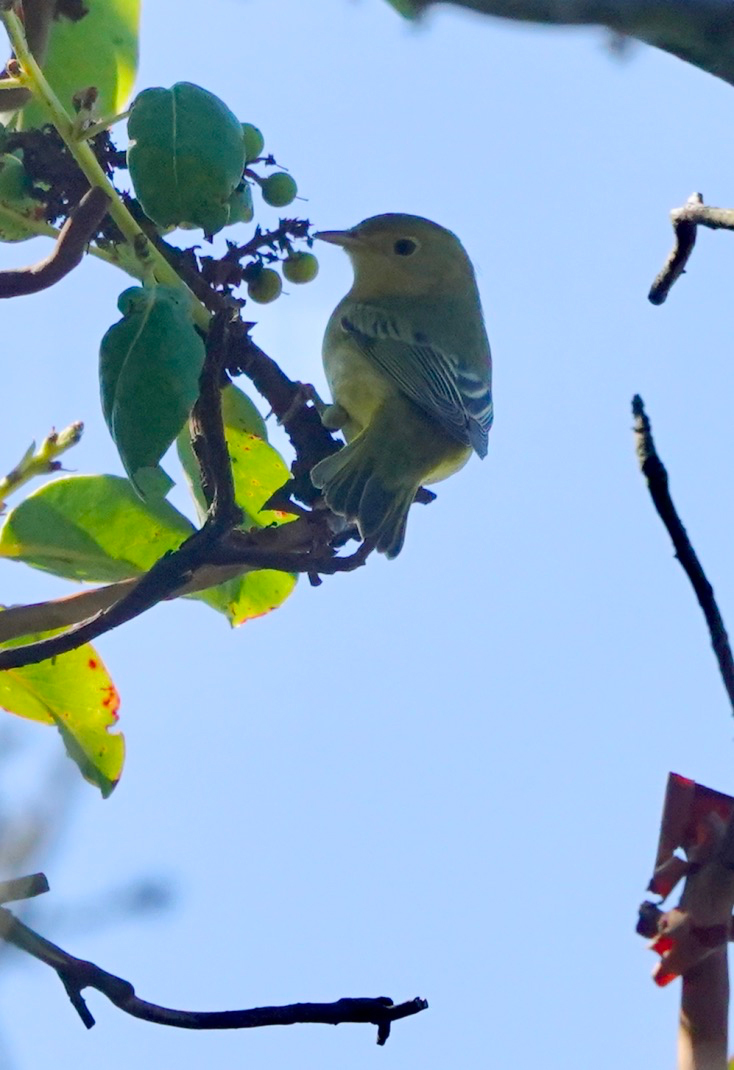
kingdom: Animalia
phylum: Chordata
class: Aves
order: Passeriformes
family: Parulidae
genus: Setophaga
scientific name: Setophaga petechia
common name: Yellow warbler
